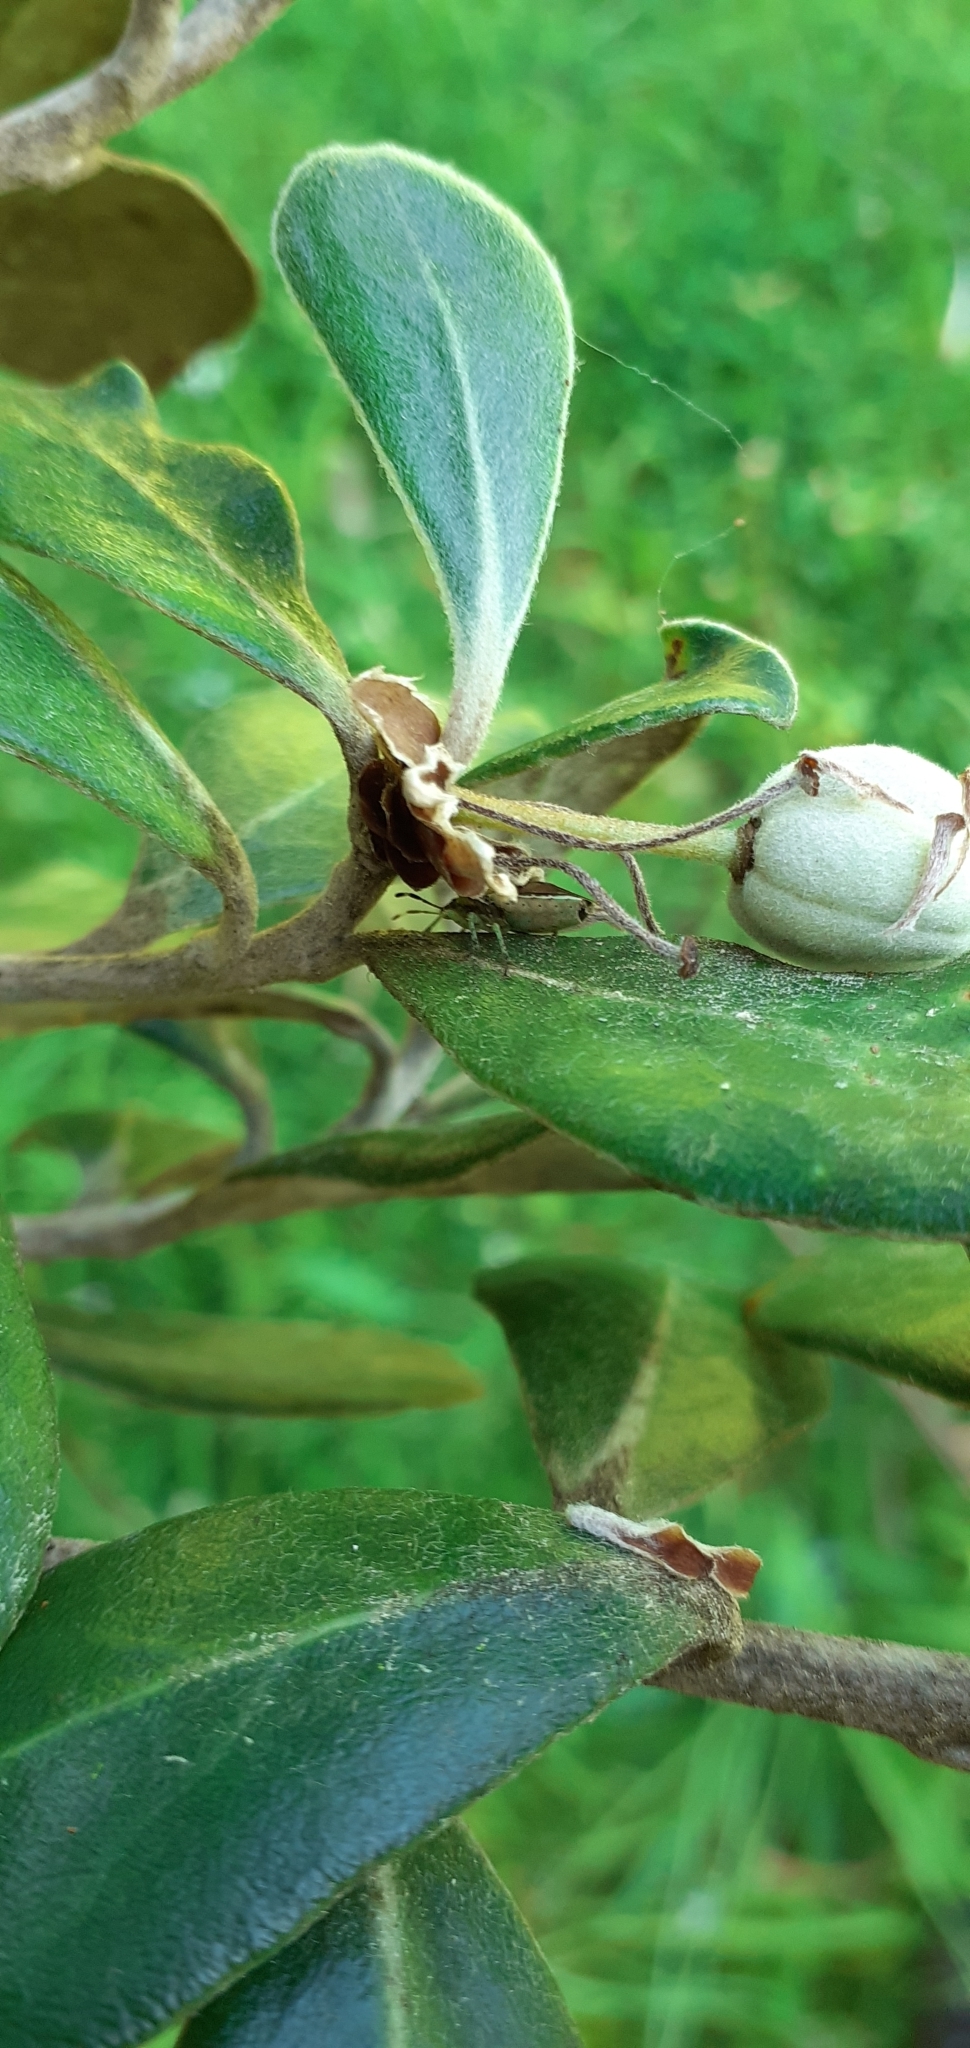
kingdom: Animalia
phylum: Arthropoda
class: Insecta
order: Hemiptera
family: Pentatomidae
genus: Monteithiella
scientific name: Monteithiella
